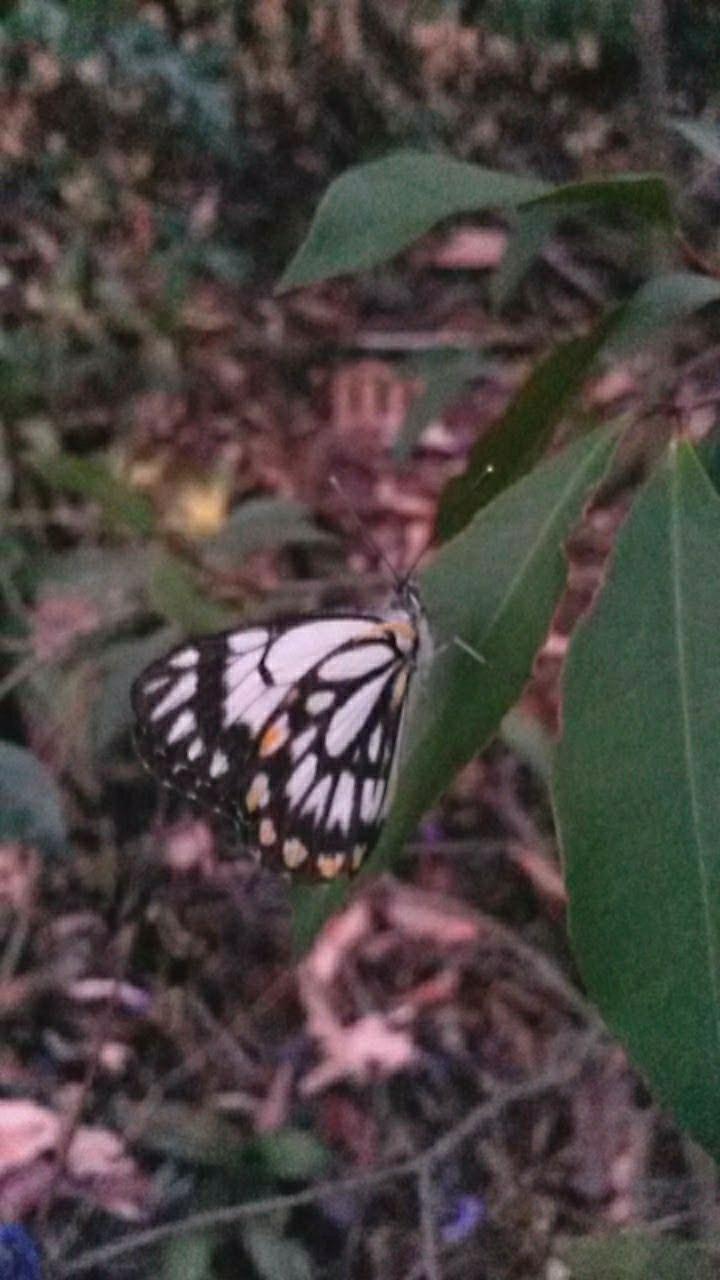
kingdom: Animalia
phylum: Arthropoda
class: Insecta
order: Lepidoptera
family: Pieridae
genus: Belenois
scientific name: Belenois java
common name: Caper white
